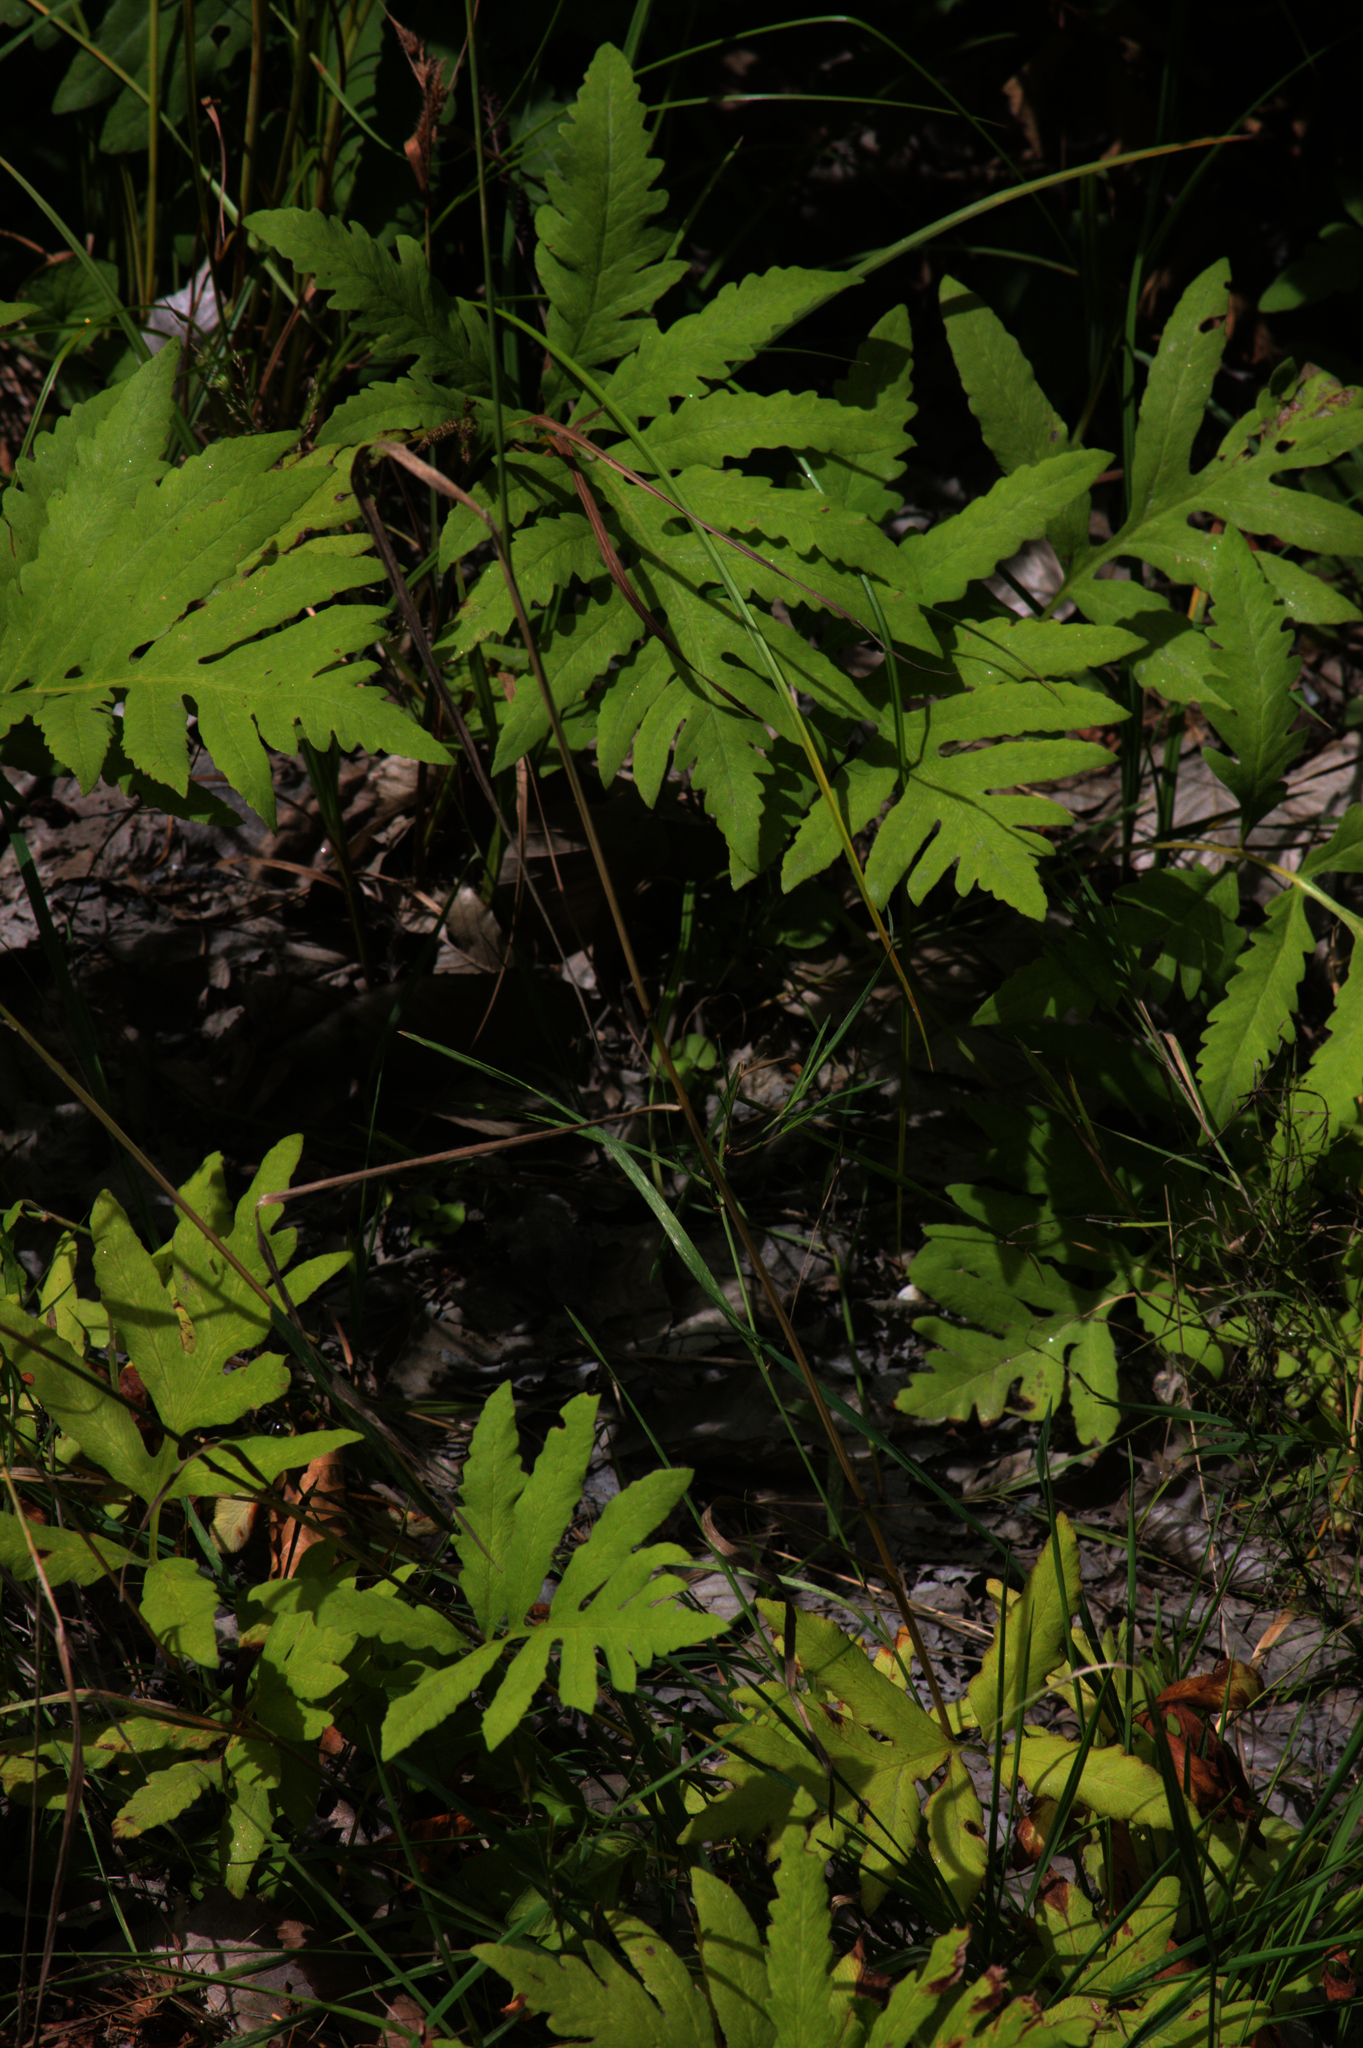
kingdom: Plantae
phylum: Tracheophyta
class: Polypodiopsida
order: Polypodiales
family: Onocleaceae
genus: Onoclea
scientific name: Onoclea sensibilis
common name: Sensitive fern
